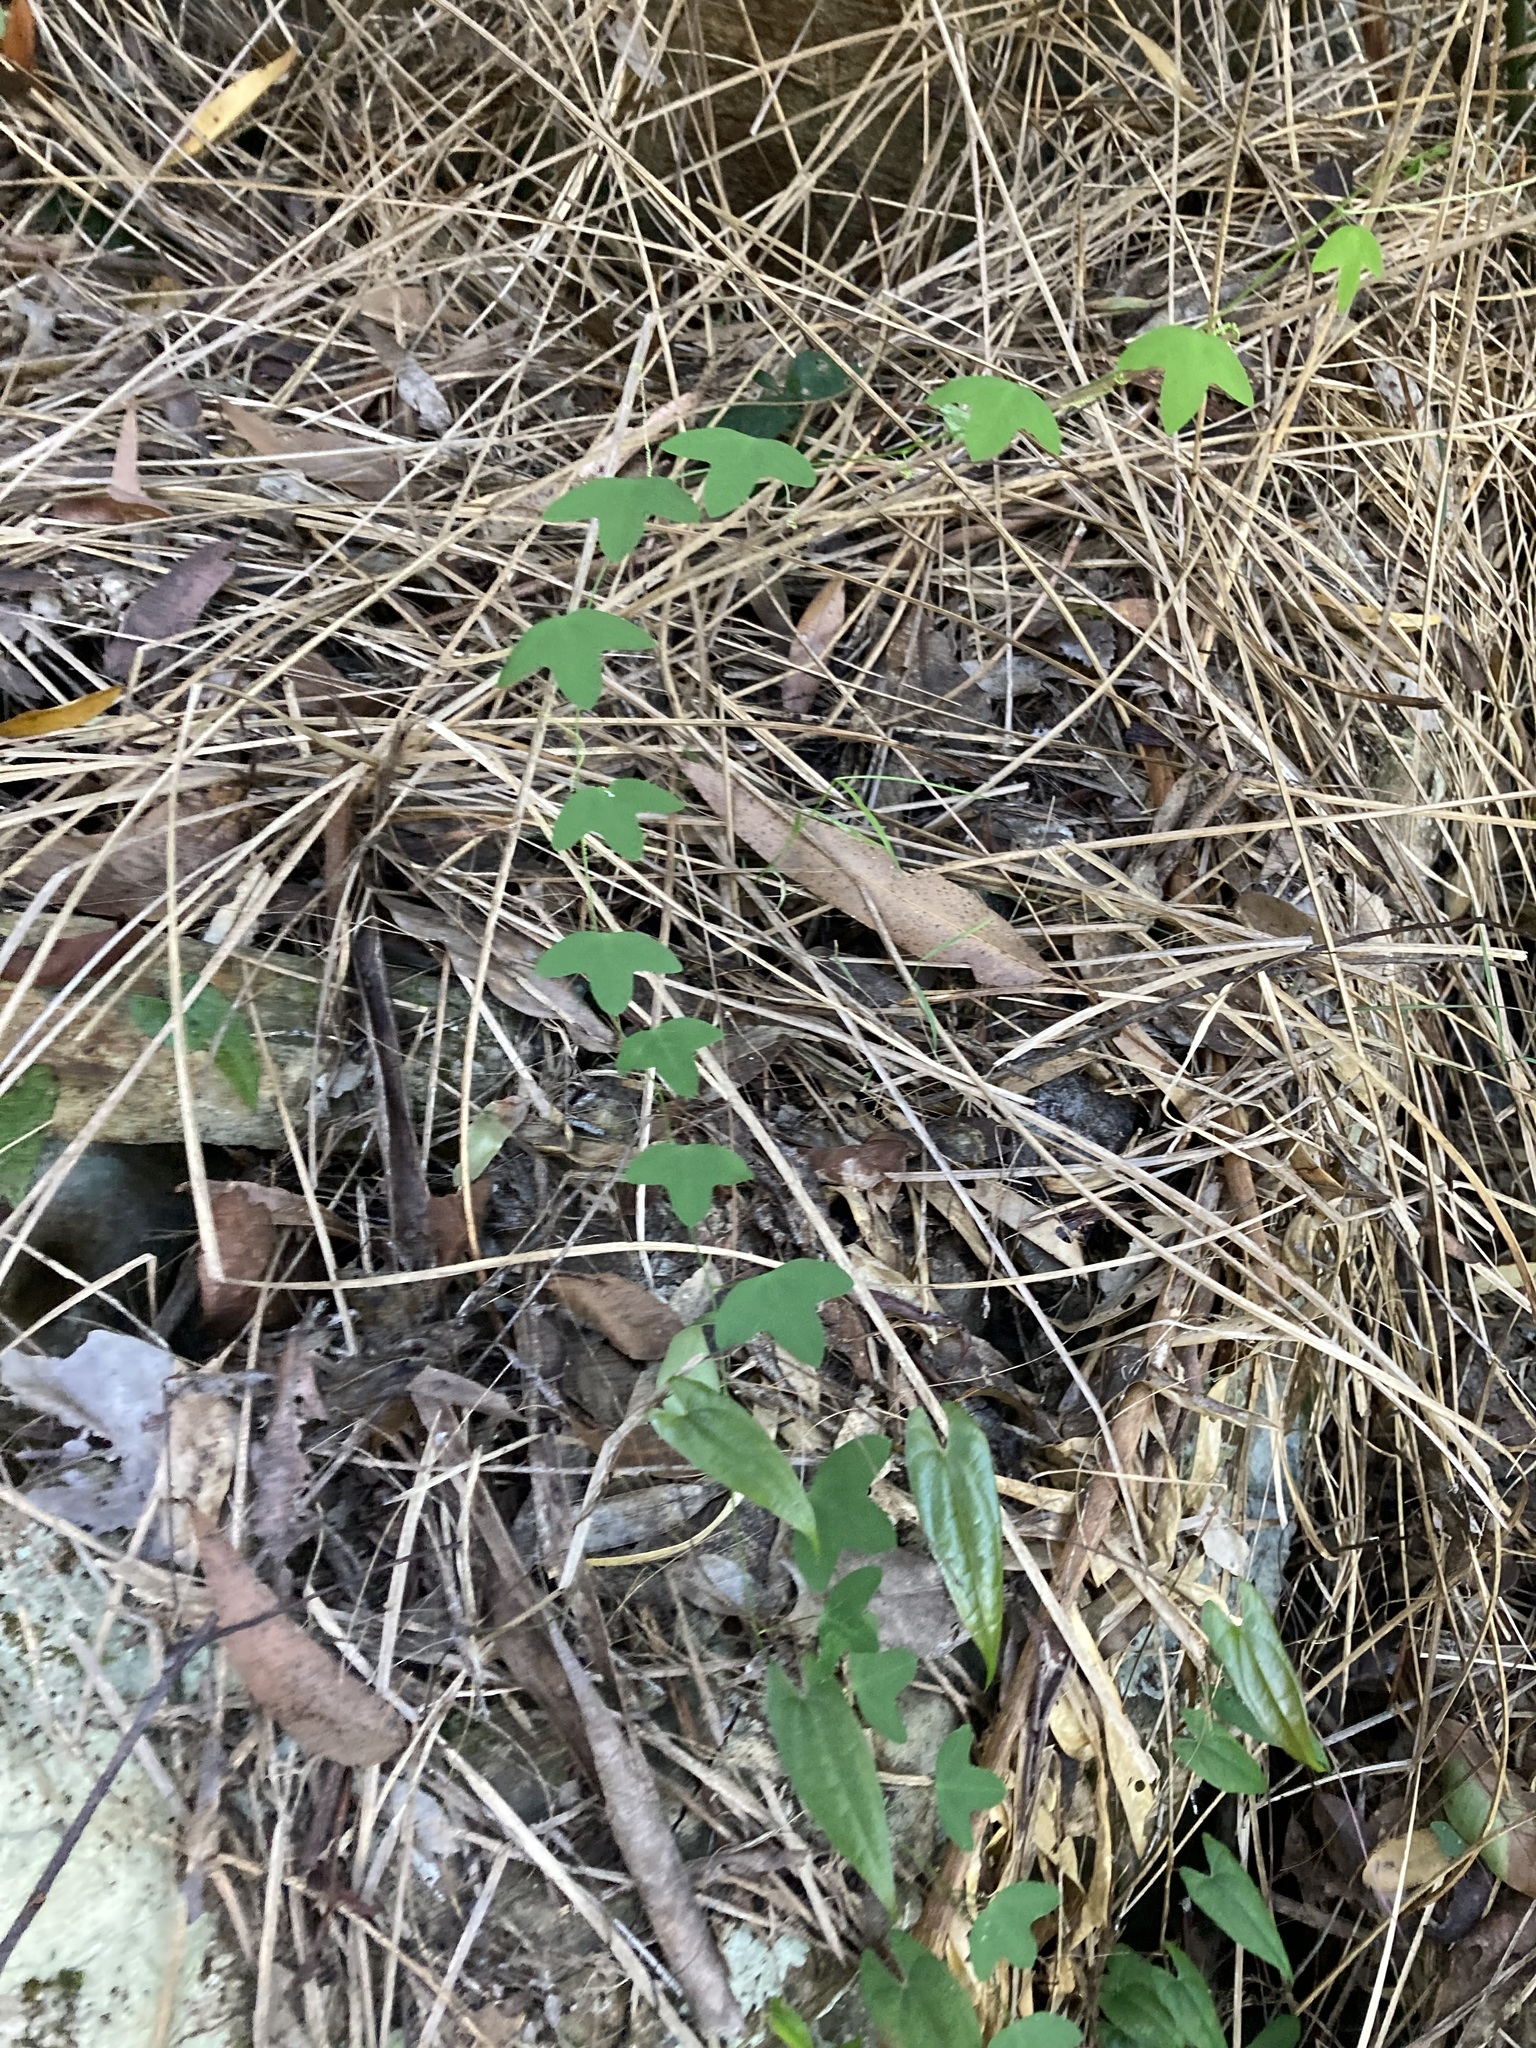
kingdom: Plantae
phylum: Tracheophyta
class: Magnoliopsida
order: Malpighiales
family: Passifloraceae
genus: Passiflora
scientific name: Passiflora herbertiana
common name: Yellow passionflower
